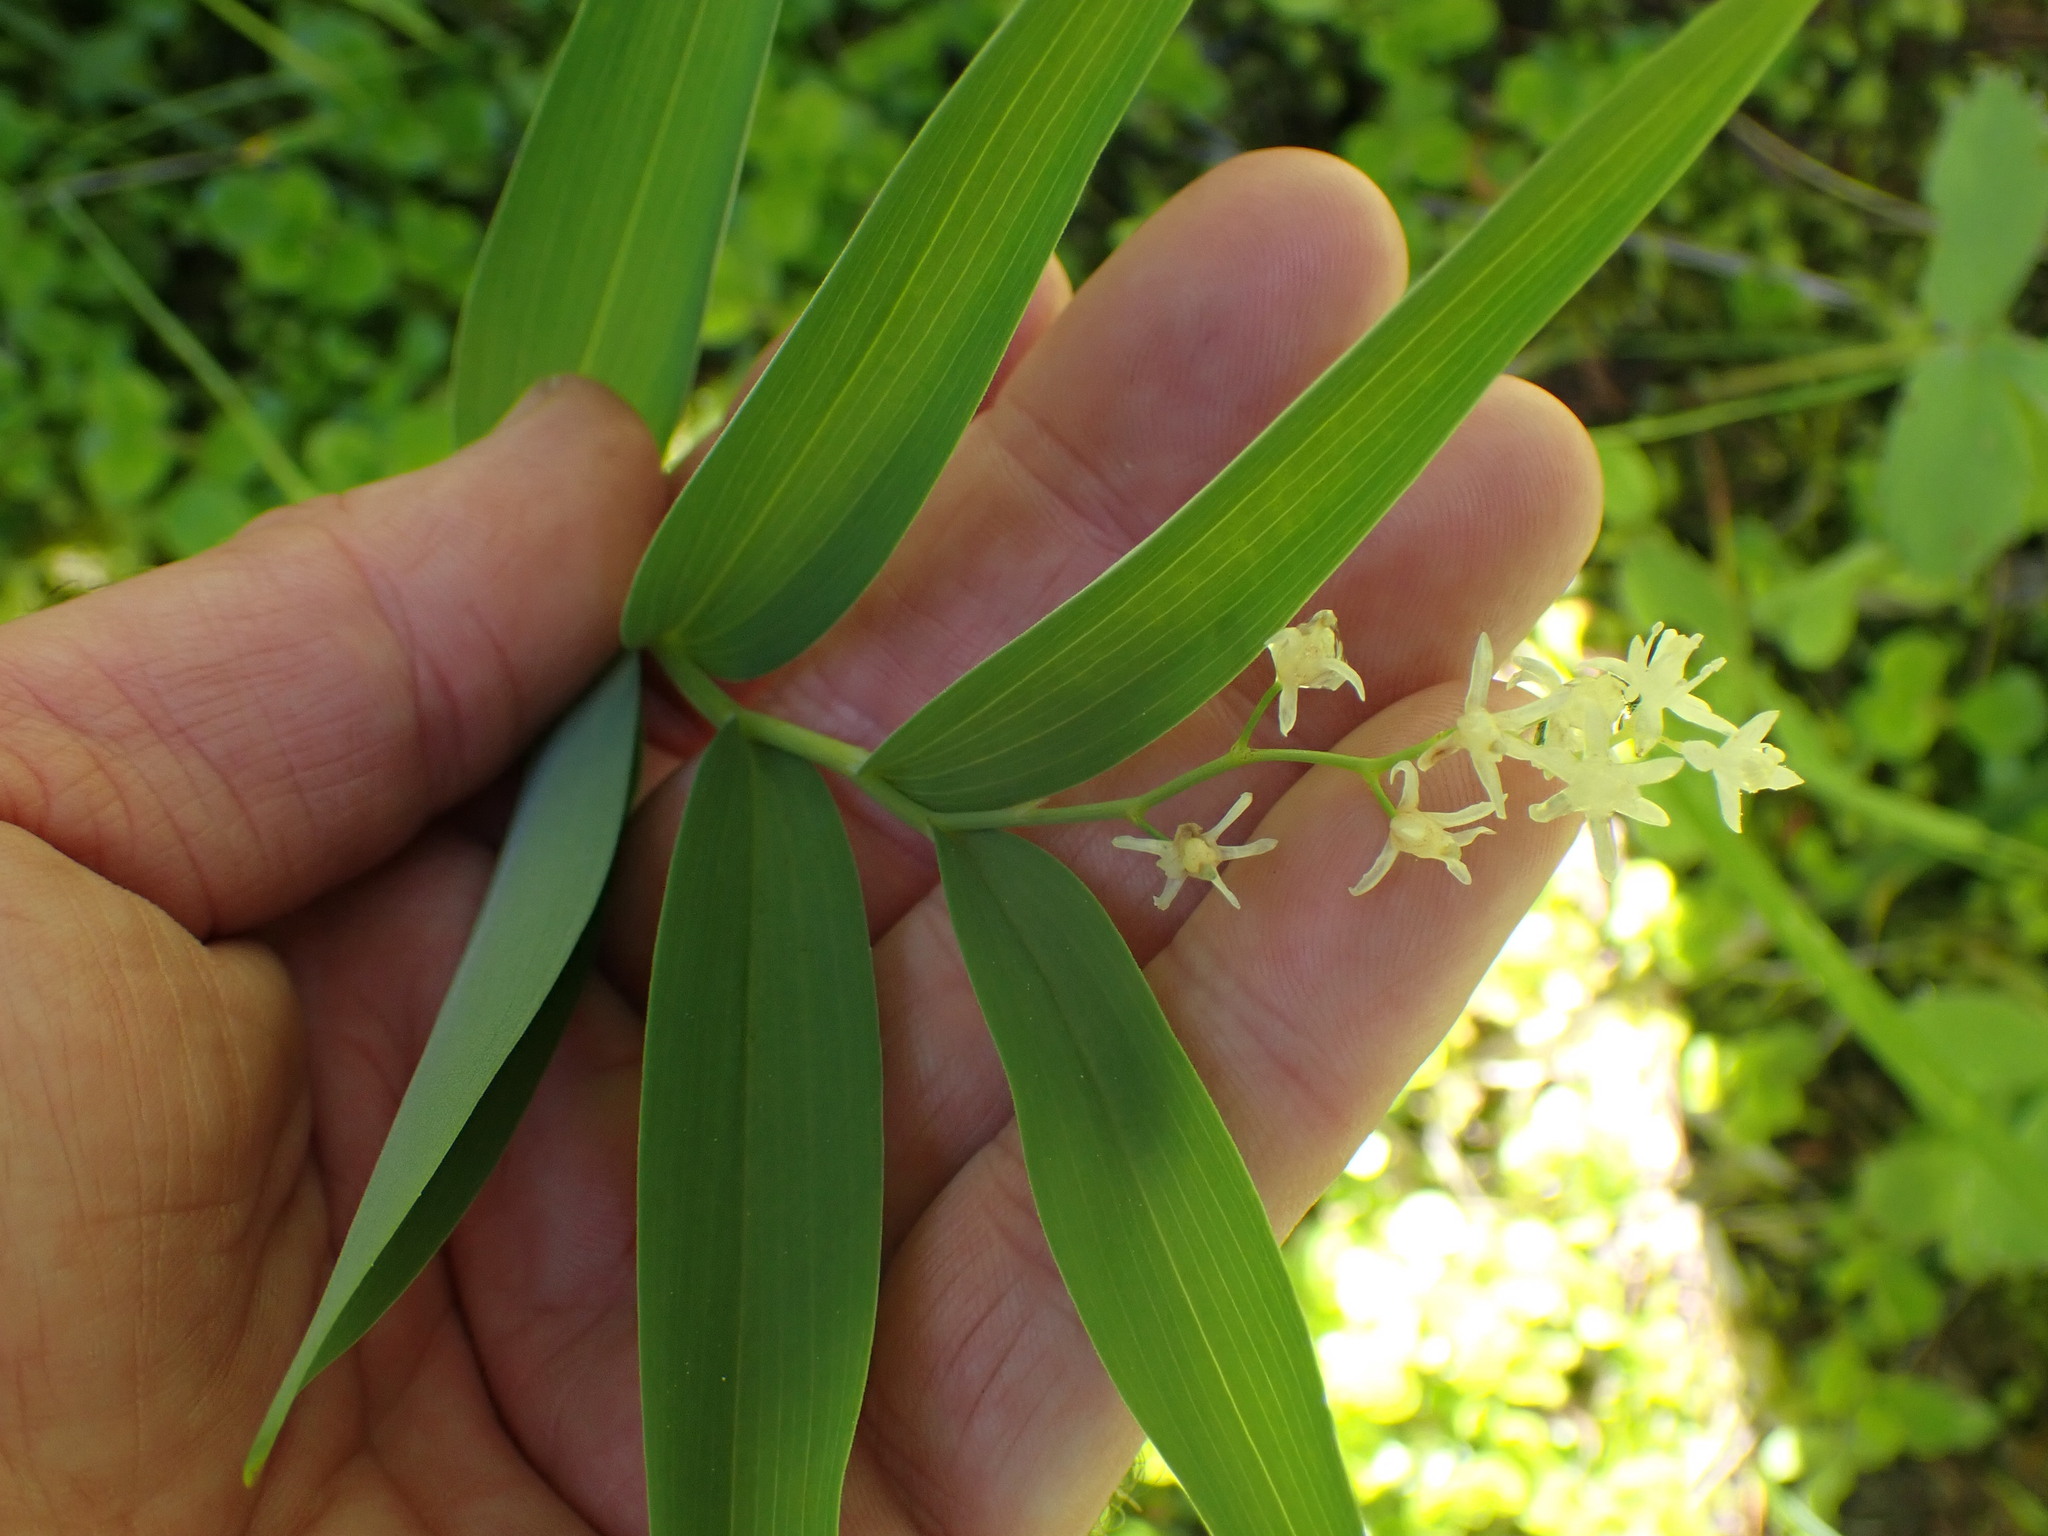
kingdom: Plantae
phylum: Tracheophyta
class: Liliopsida
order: Asparagales
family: Asparagaceae
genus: Maianthemum
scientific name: Maianthemum stellatum
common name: Little false solomon's seal
